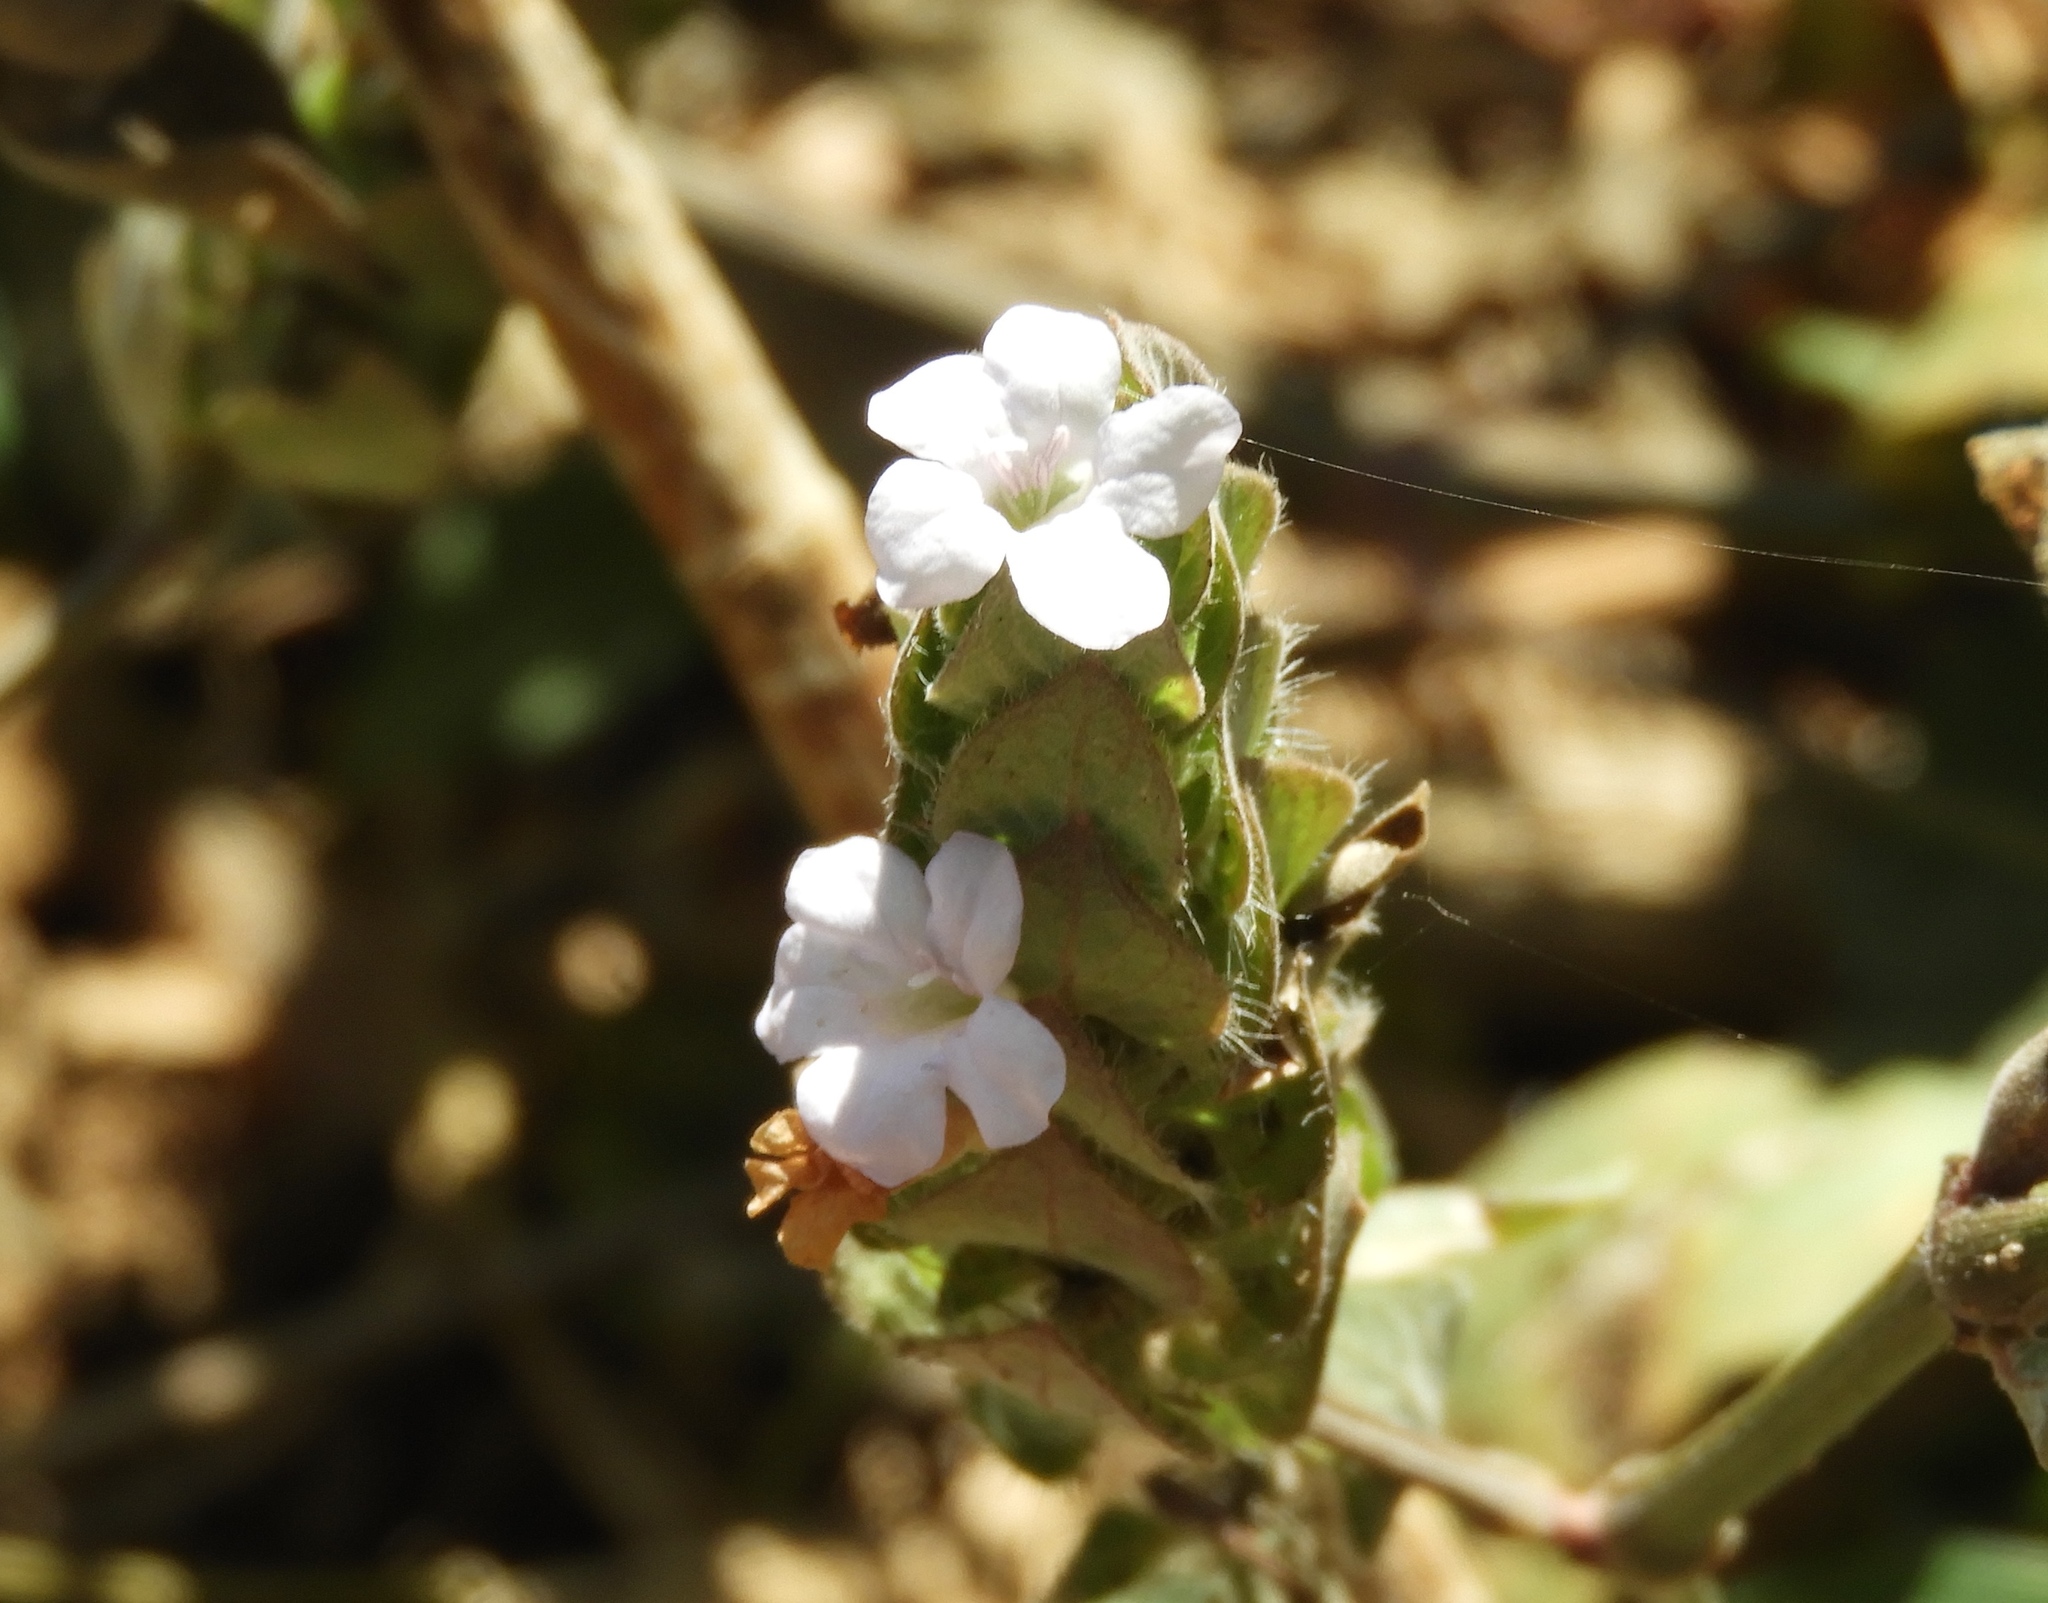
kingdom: Plantae
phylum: Tracheophyta
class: Magnoliopsida
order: Lamiales
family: Acanthaceae
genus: Ruellia
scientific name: Ruellia blechum
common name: Browne's blechum
